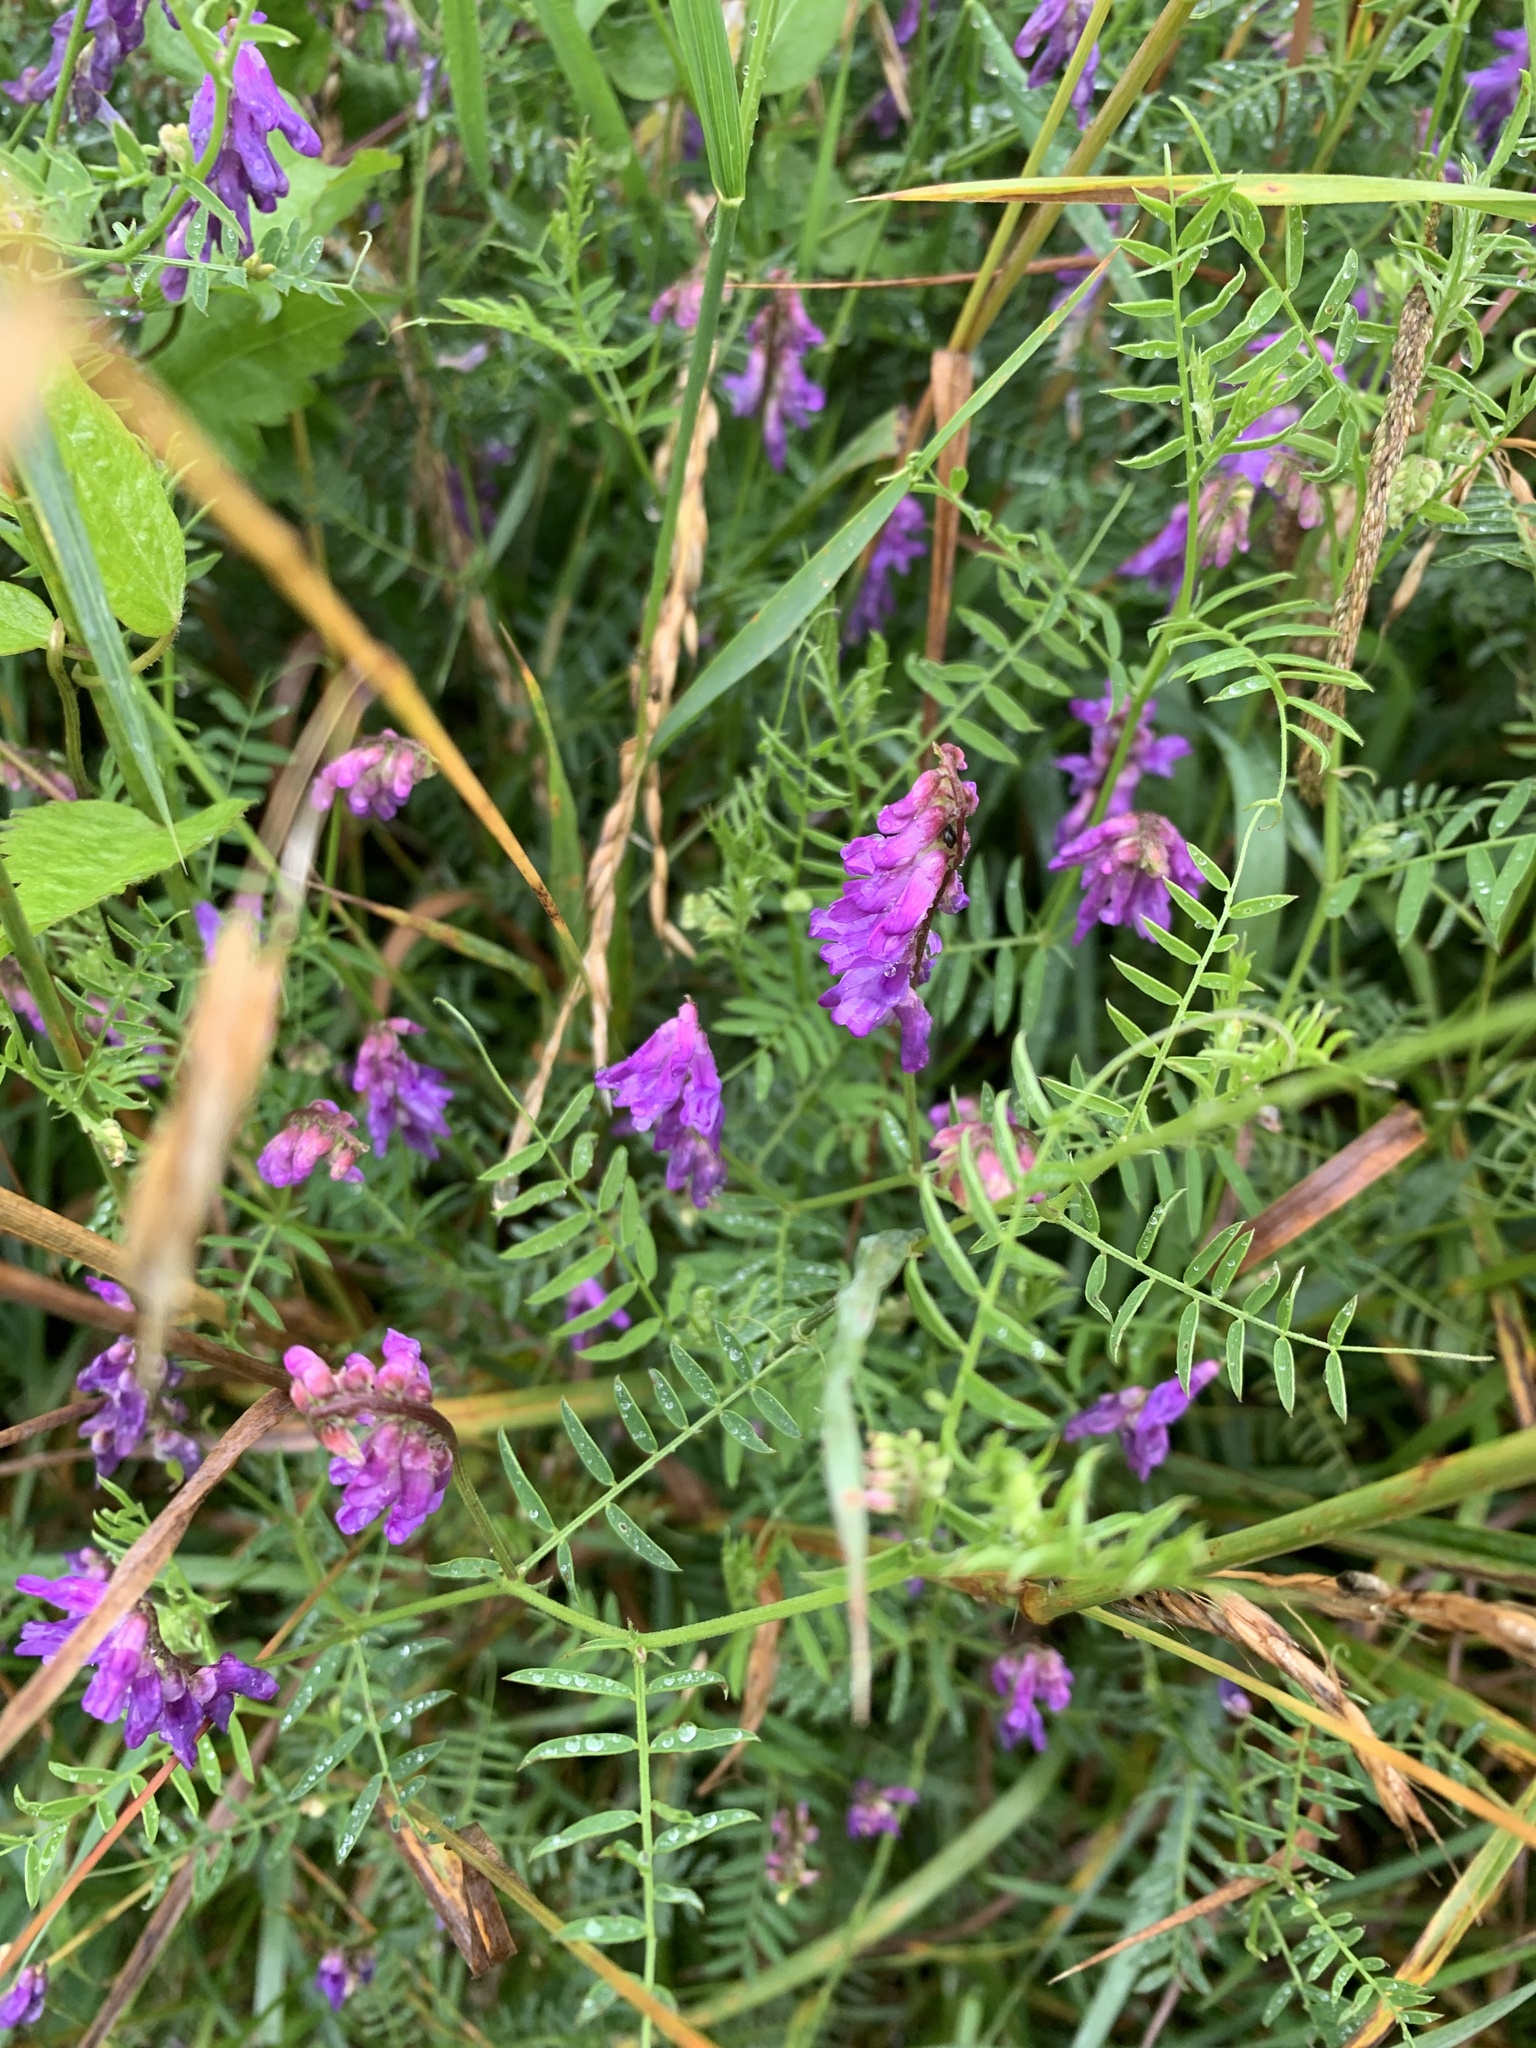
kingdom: Plantae
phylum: Tracheophyta
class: Magnoliopsida
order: Fabales
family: Fabaceae
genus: Vicia
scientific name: Vicia cracca
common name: Bird vetch
